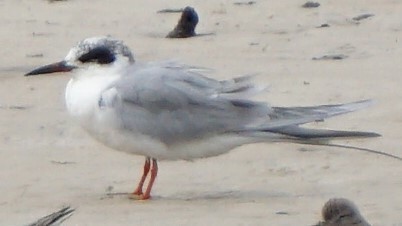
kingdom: Animalia
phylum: Chordata
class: Aves
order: Charadriiformes
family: Laridae
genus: Sterna
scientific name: Sterna forsteri
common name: Forster's tern
